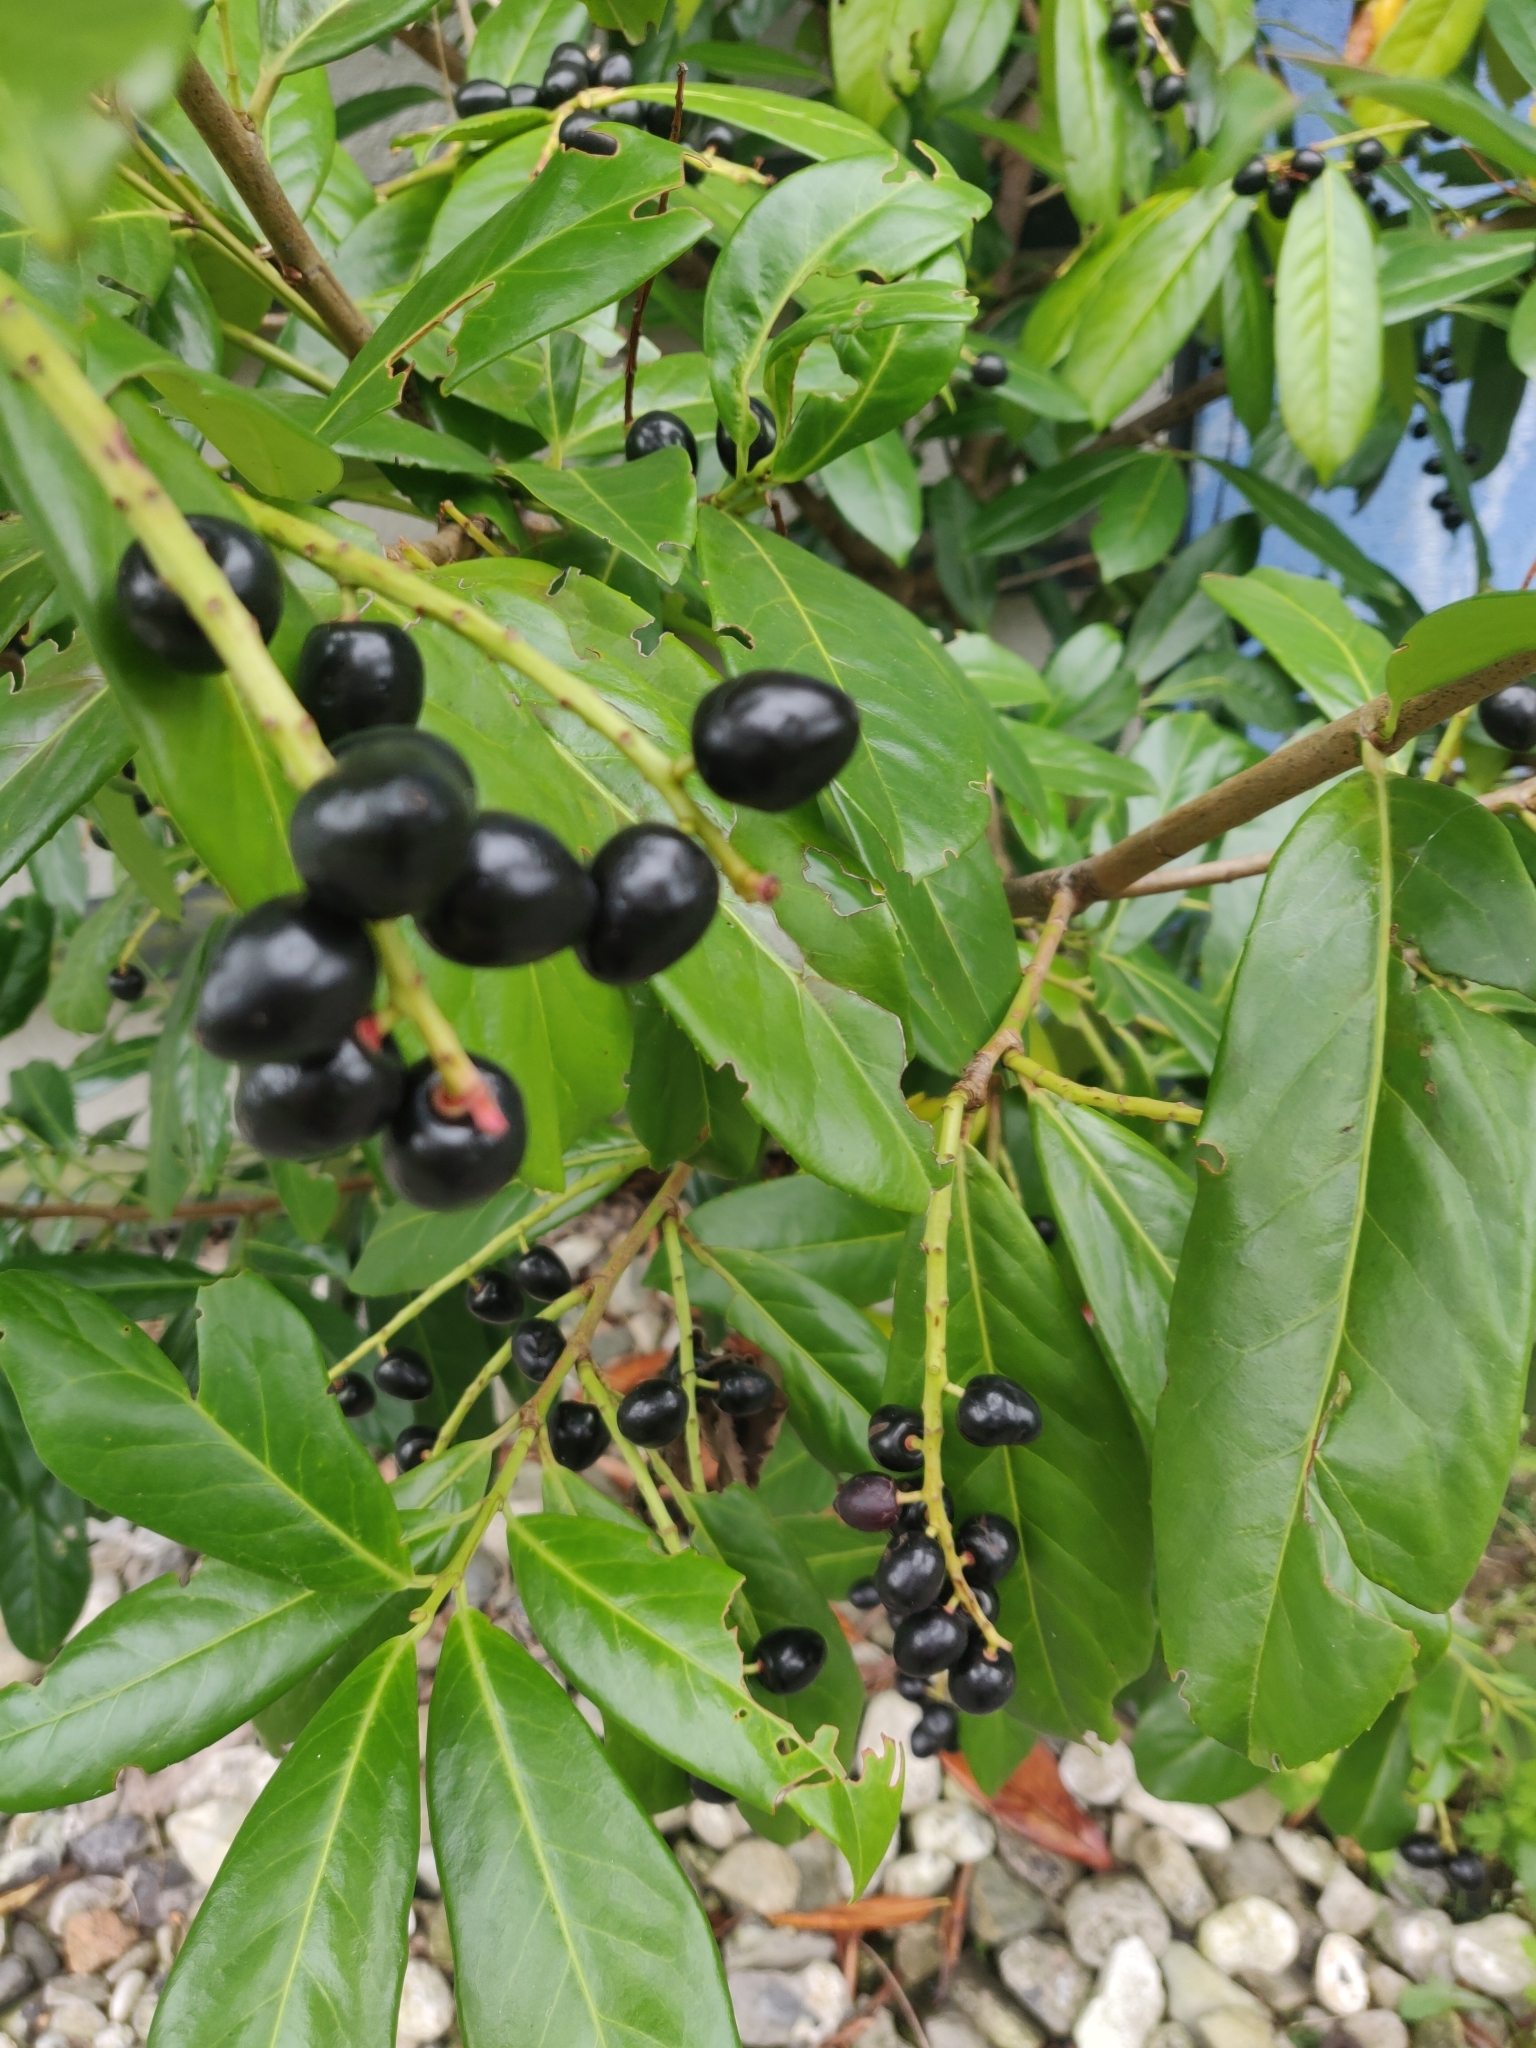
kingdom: Plantae
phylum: Tracheophyta
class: Magnoliopsida
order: Rosales
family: Rosaceae
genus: Prunus
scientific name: Prunus laurocerasus
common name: Cherry laurel
